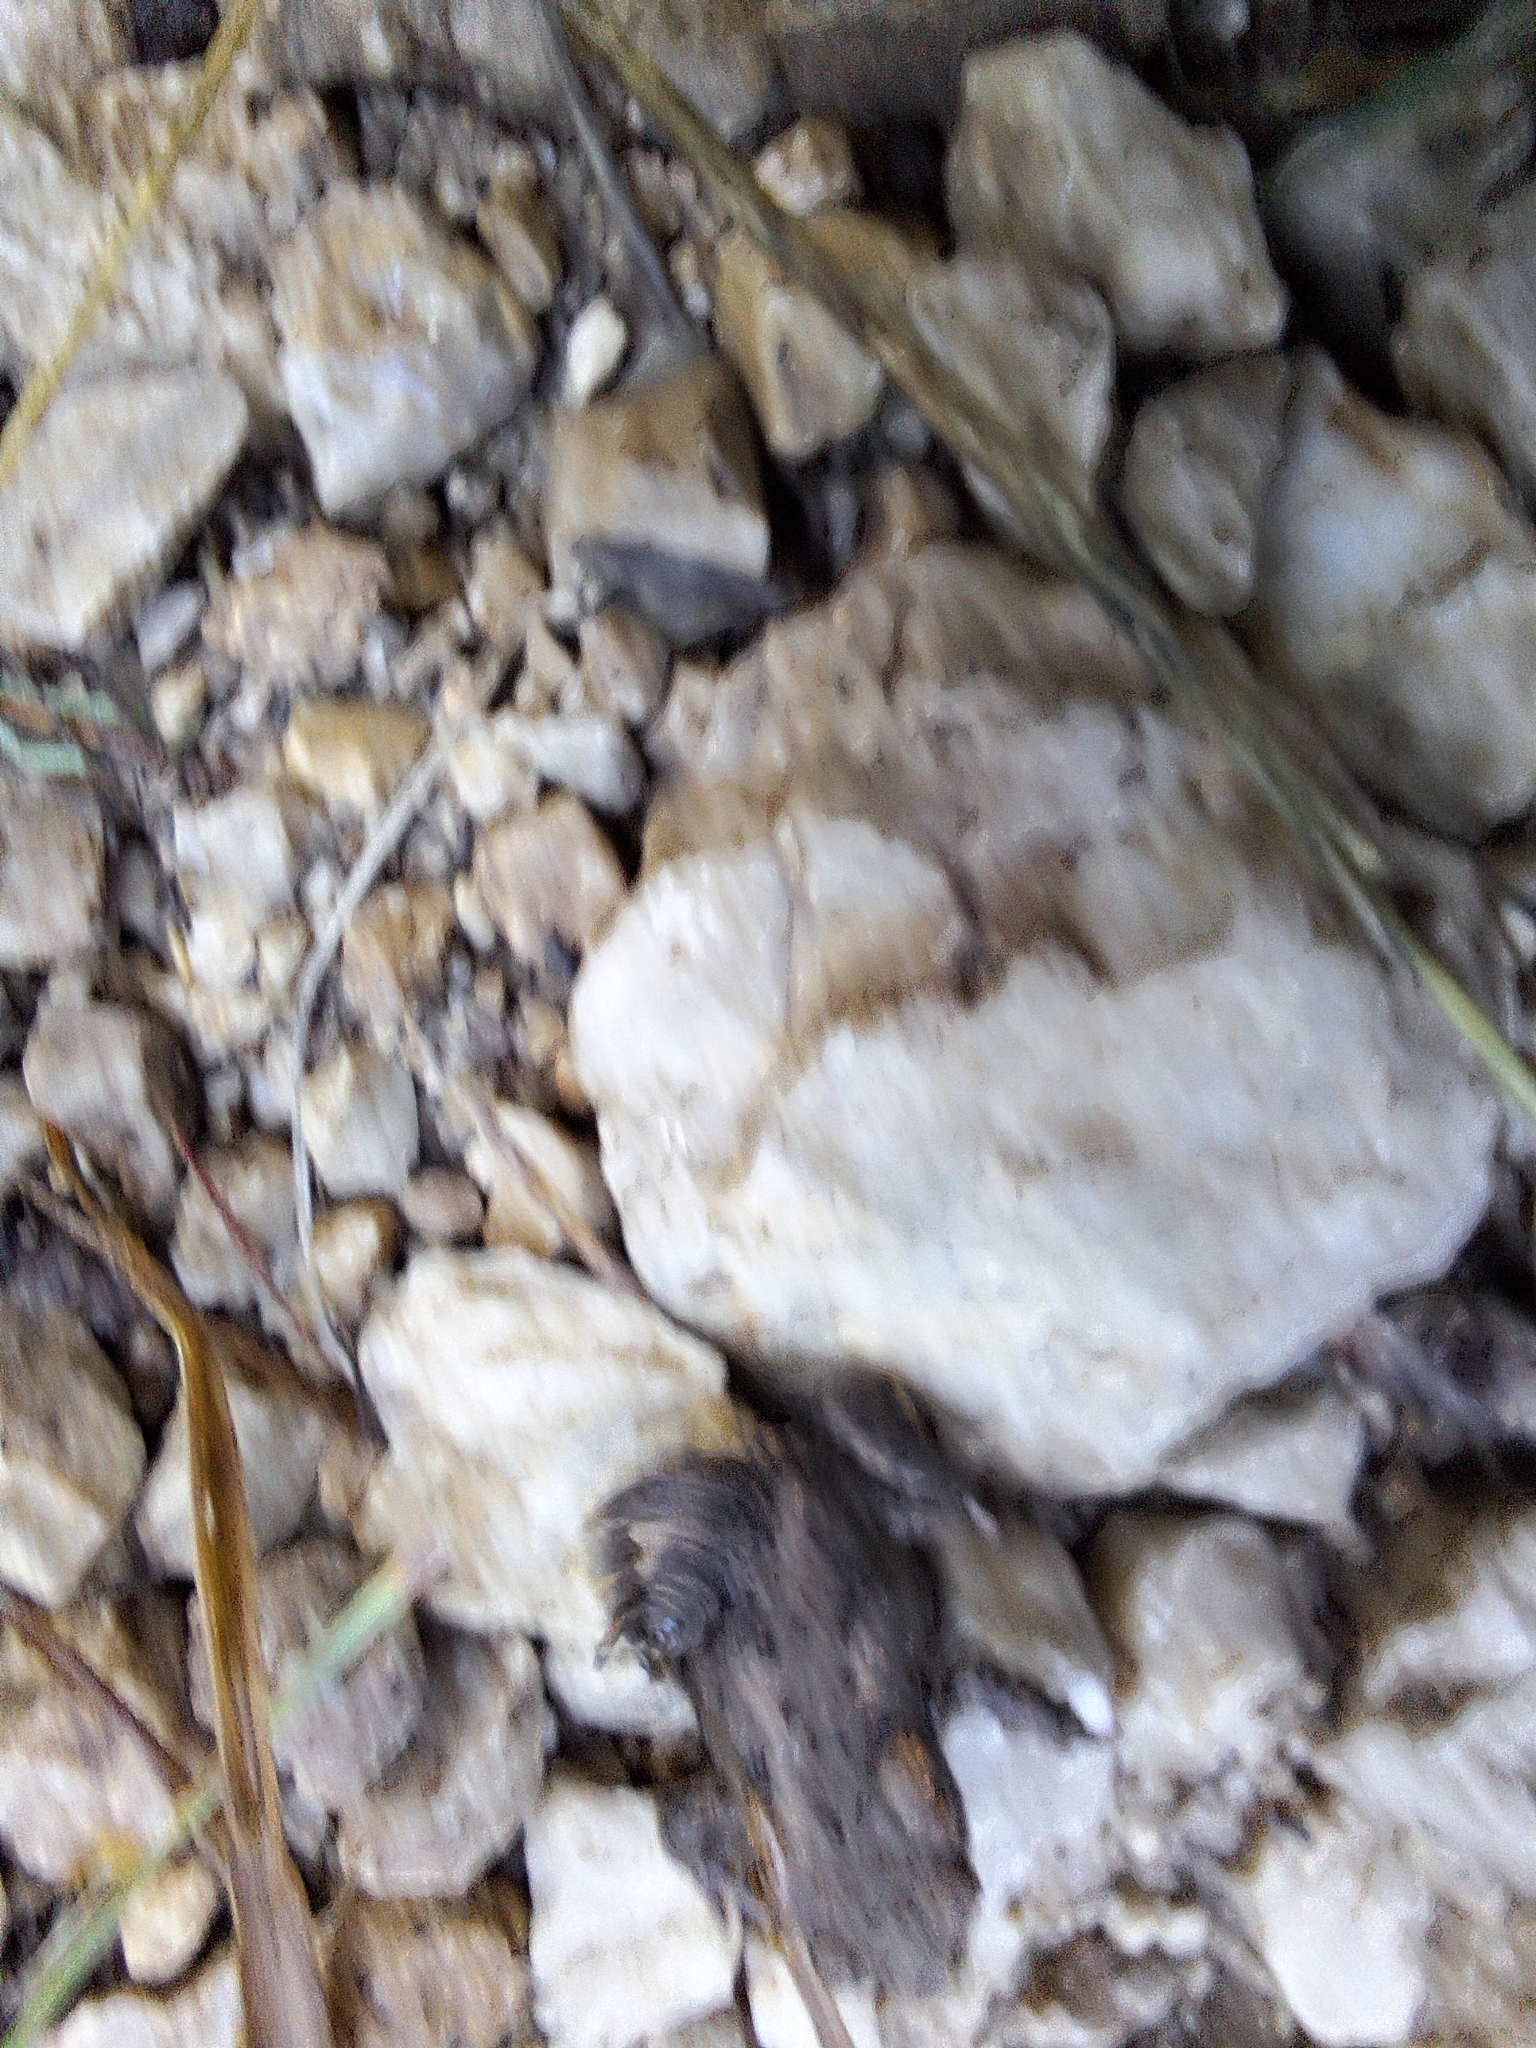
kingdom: Animalia
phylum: Chordata
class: Amphibia
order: Anura
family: Bufonidae
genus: Bufo
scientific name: Bufo bufo
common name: Common toad
